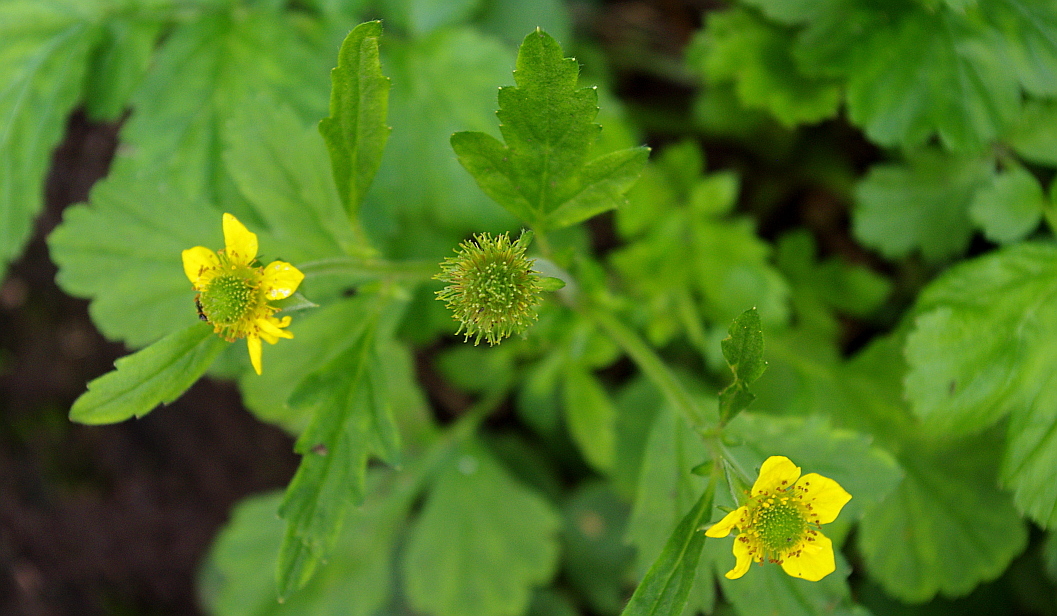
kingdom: Plantae
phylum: Tracheophyta
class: Magnoliopsida
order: Rosales
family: Rosaceae
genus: Geum
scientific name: Geum aleppicum
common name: Yellow avens
